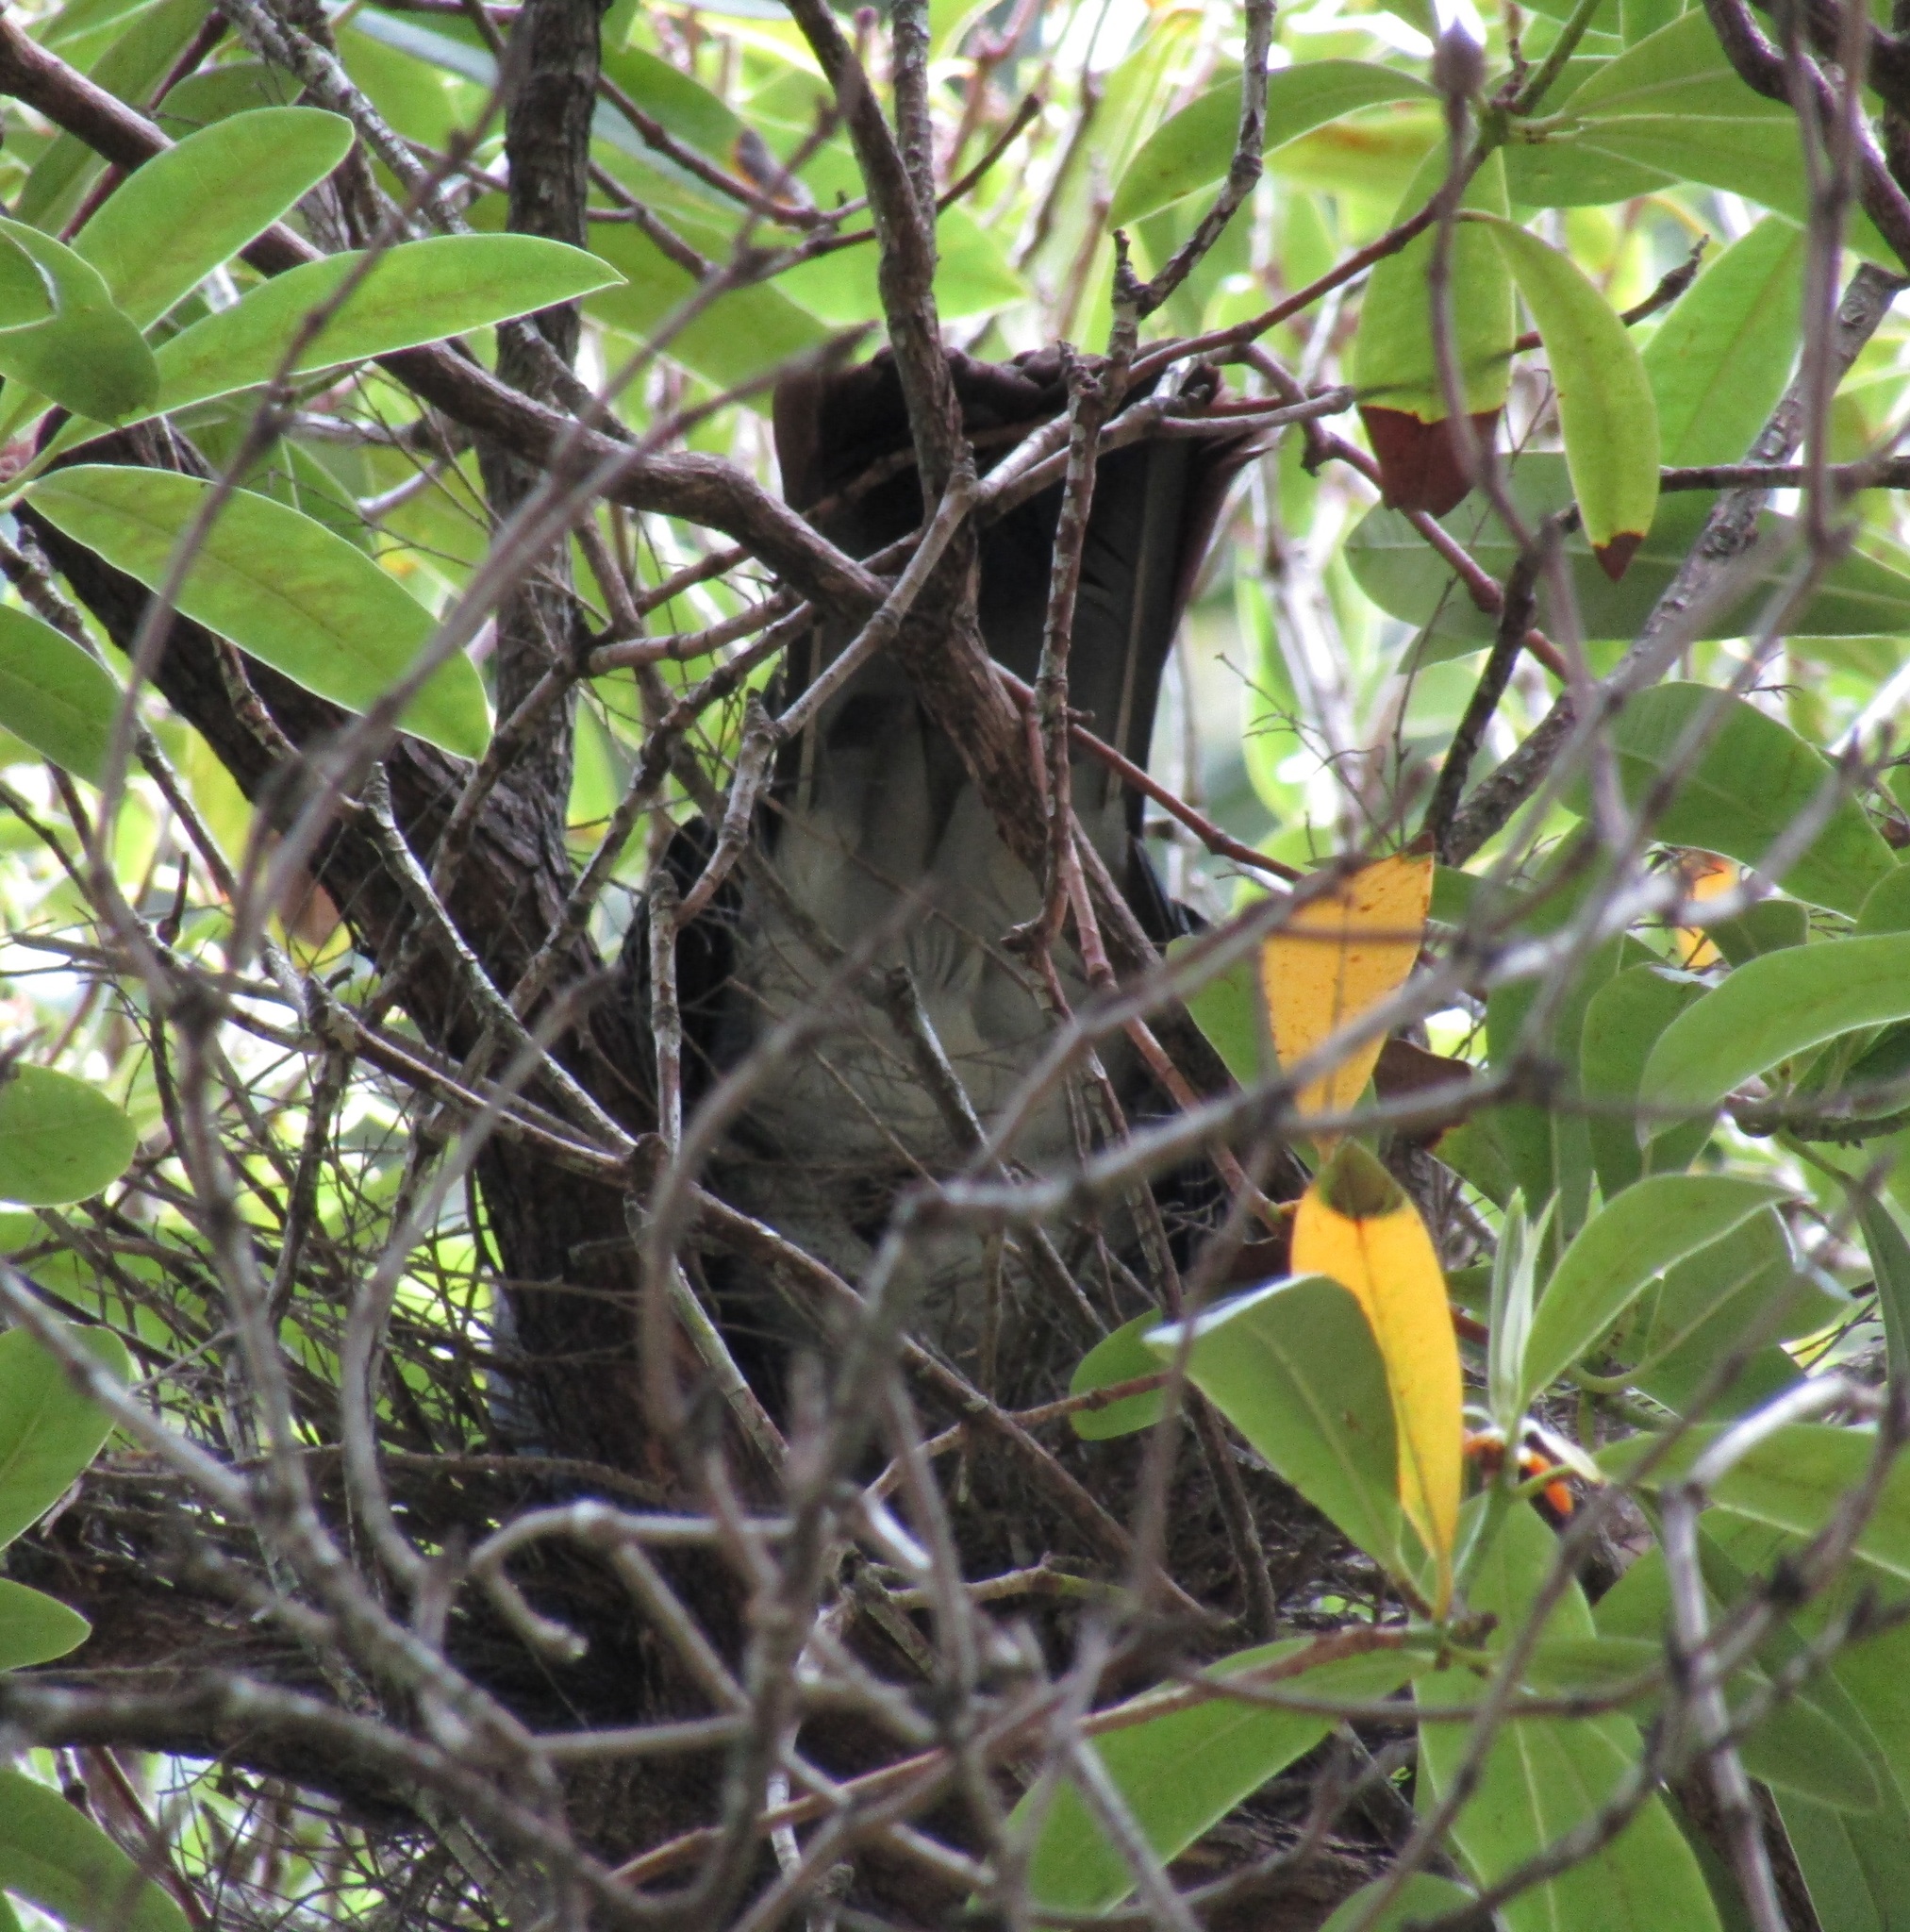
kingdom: Animalia
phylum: Chordata
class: Aves
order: Columbiformes
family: Columbidae
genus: Hemiphaga
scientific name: Hemiphaga novaeseelandiae
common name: New zealand pigeon
